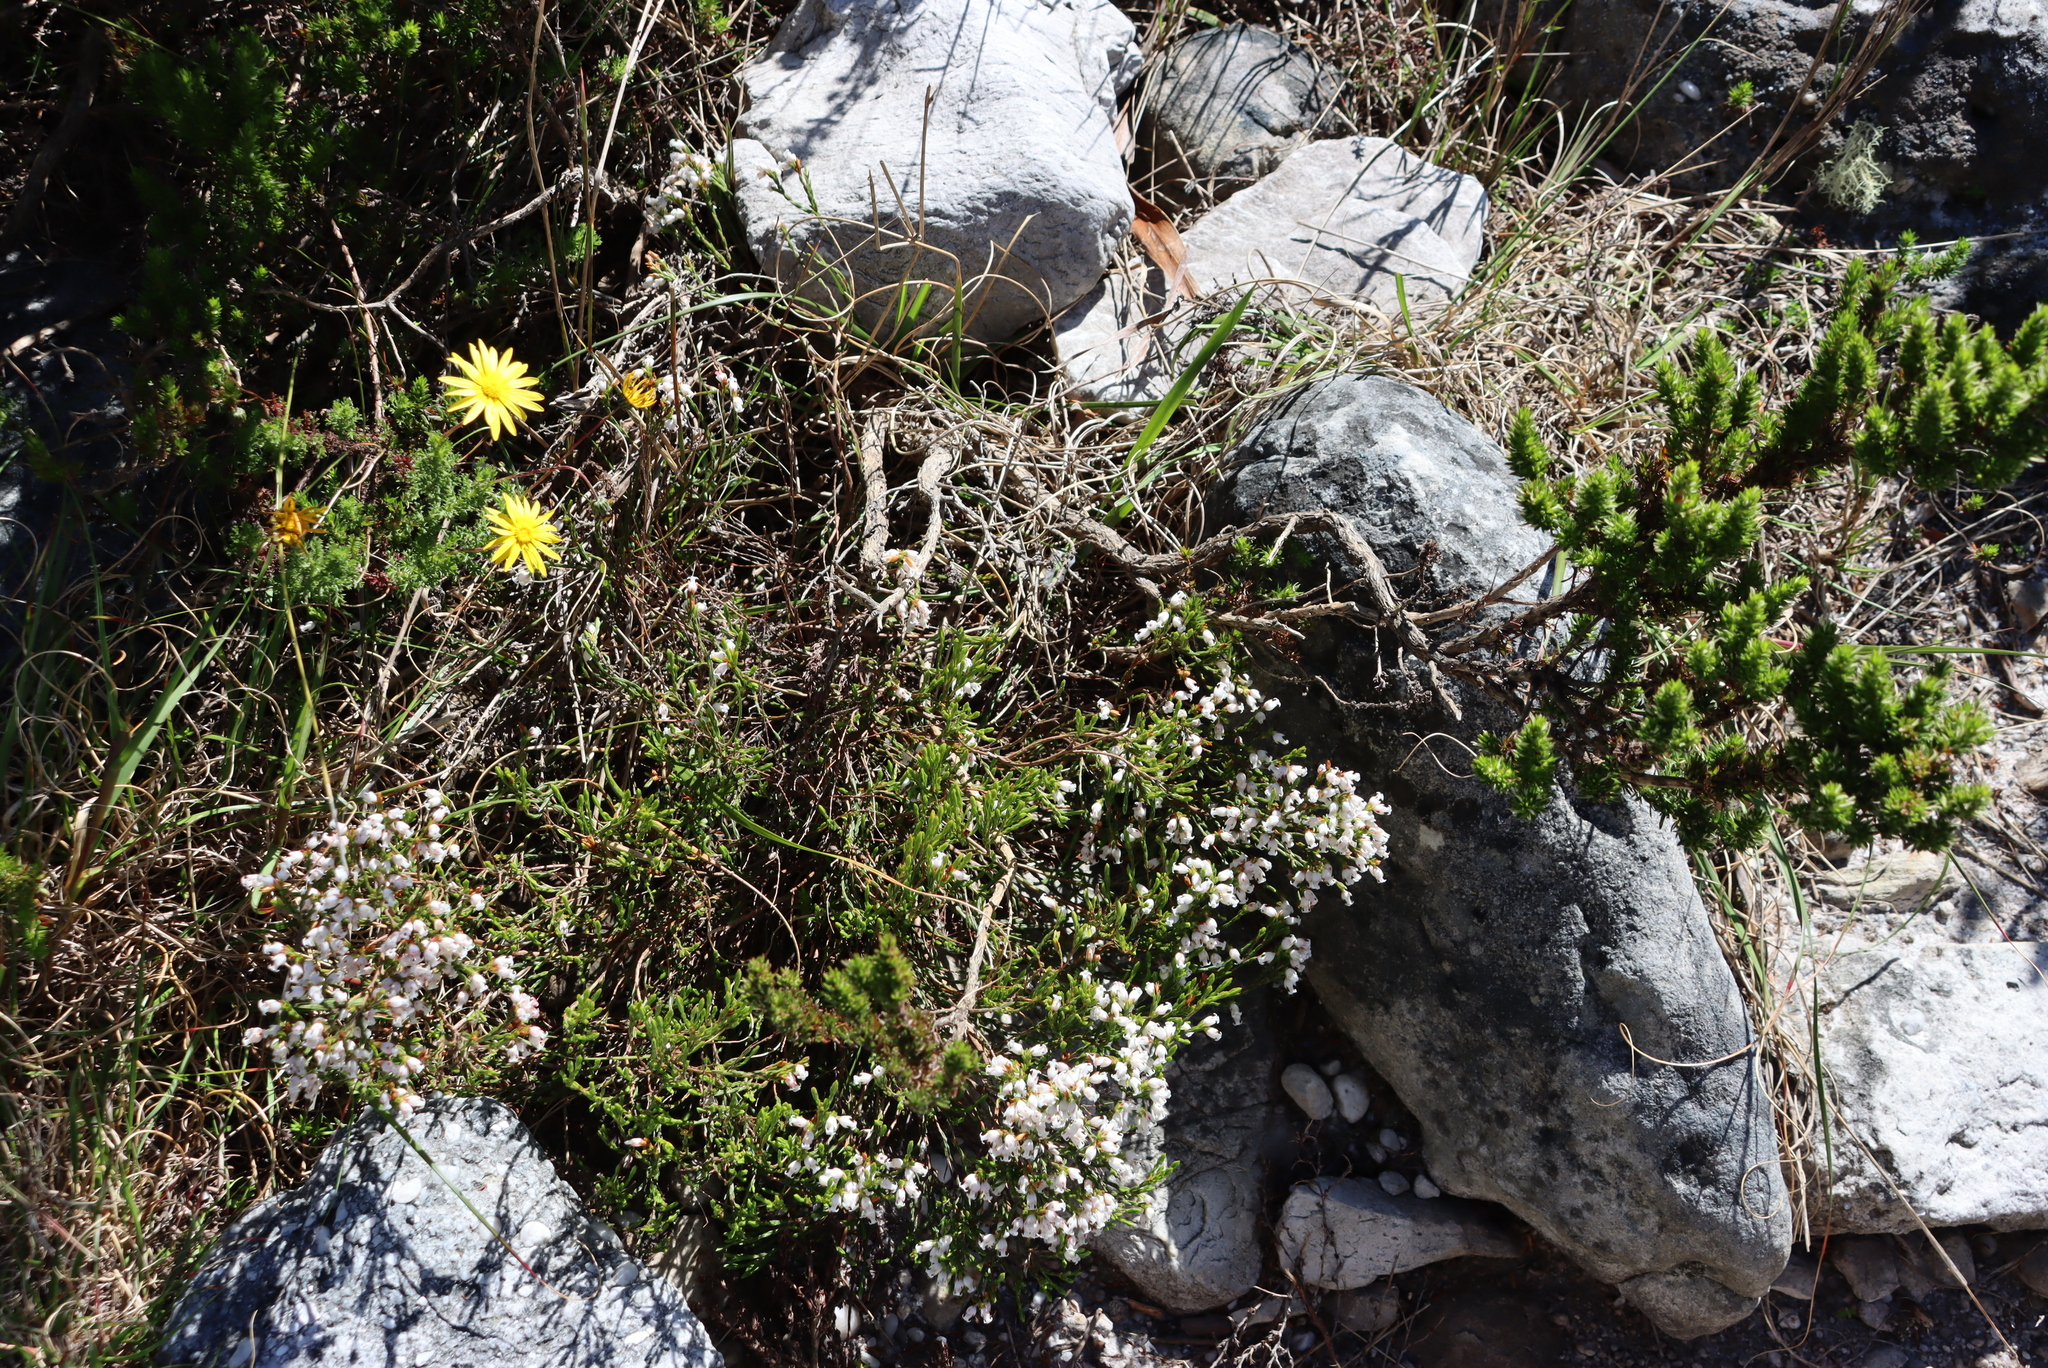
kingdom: Plantae
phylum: Tracheophyta
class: Magnoliopsida
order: Ericales
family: Ericaceae
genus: Erica
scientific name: Erica tenuifolia
